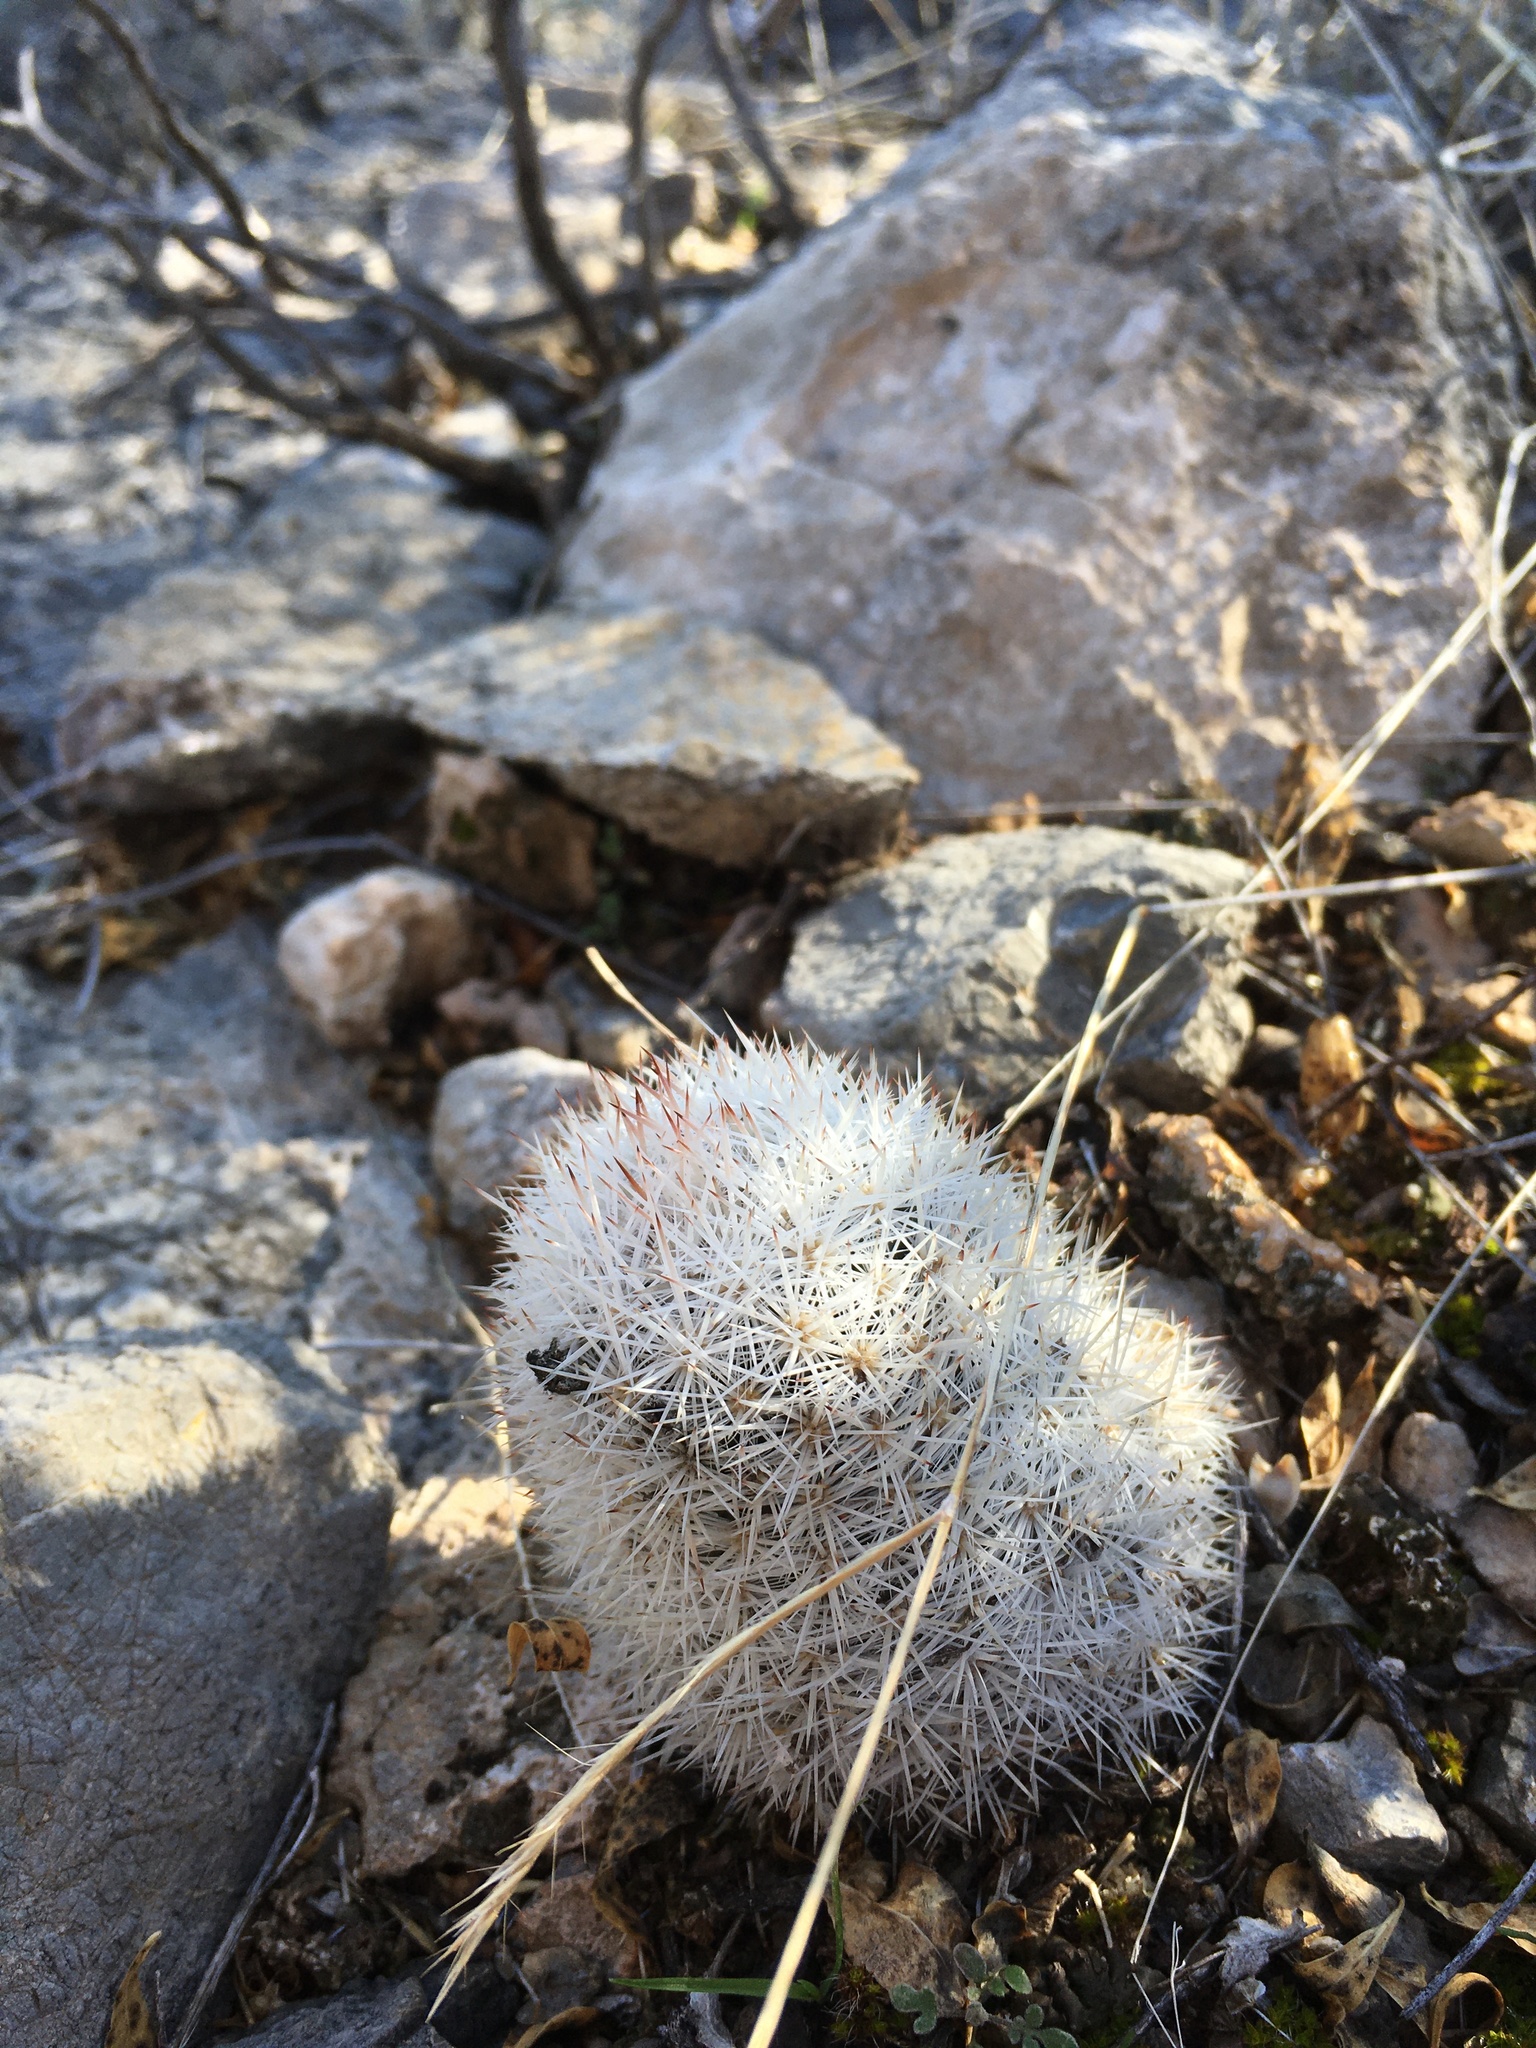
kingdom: Plantae
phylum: Tracheophyta
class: Magnoliopsida
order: Caryophyllales
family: Cactaceae
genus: Pelecyphora
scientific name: Pelecyphora sneedii
